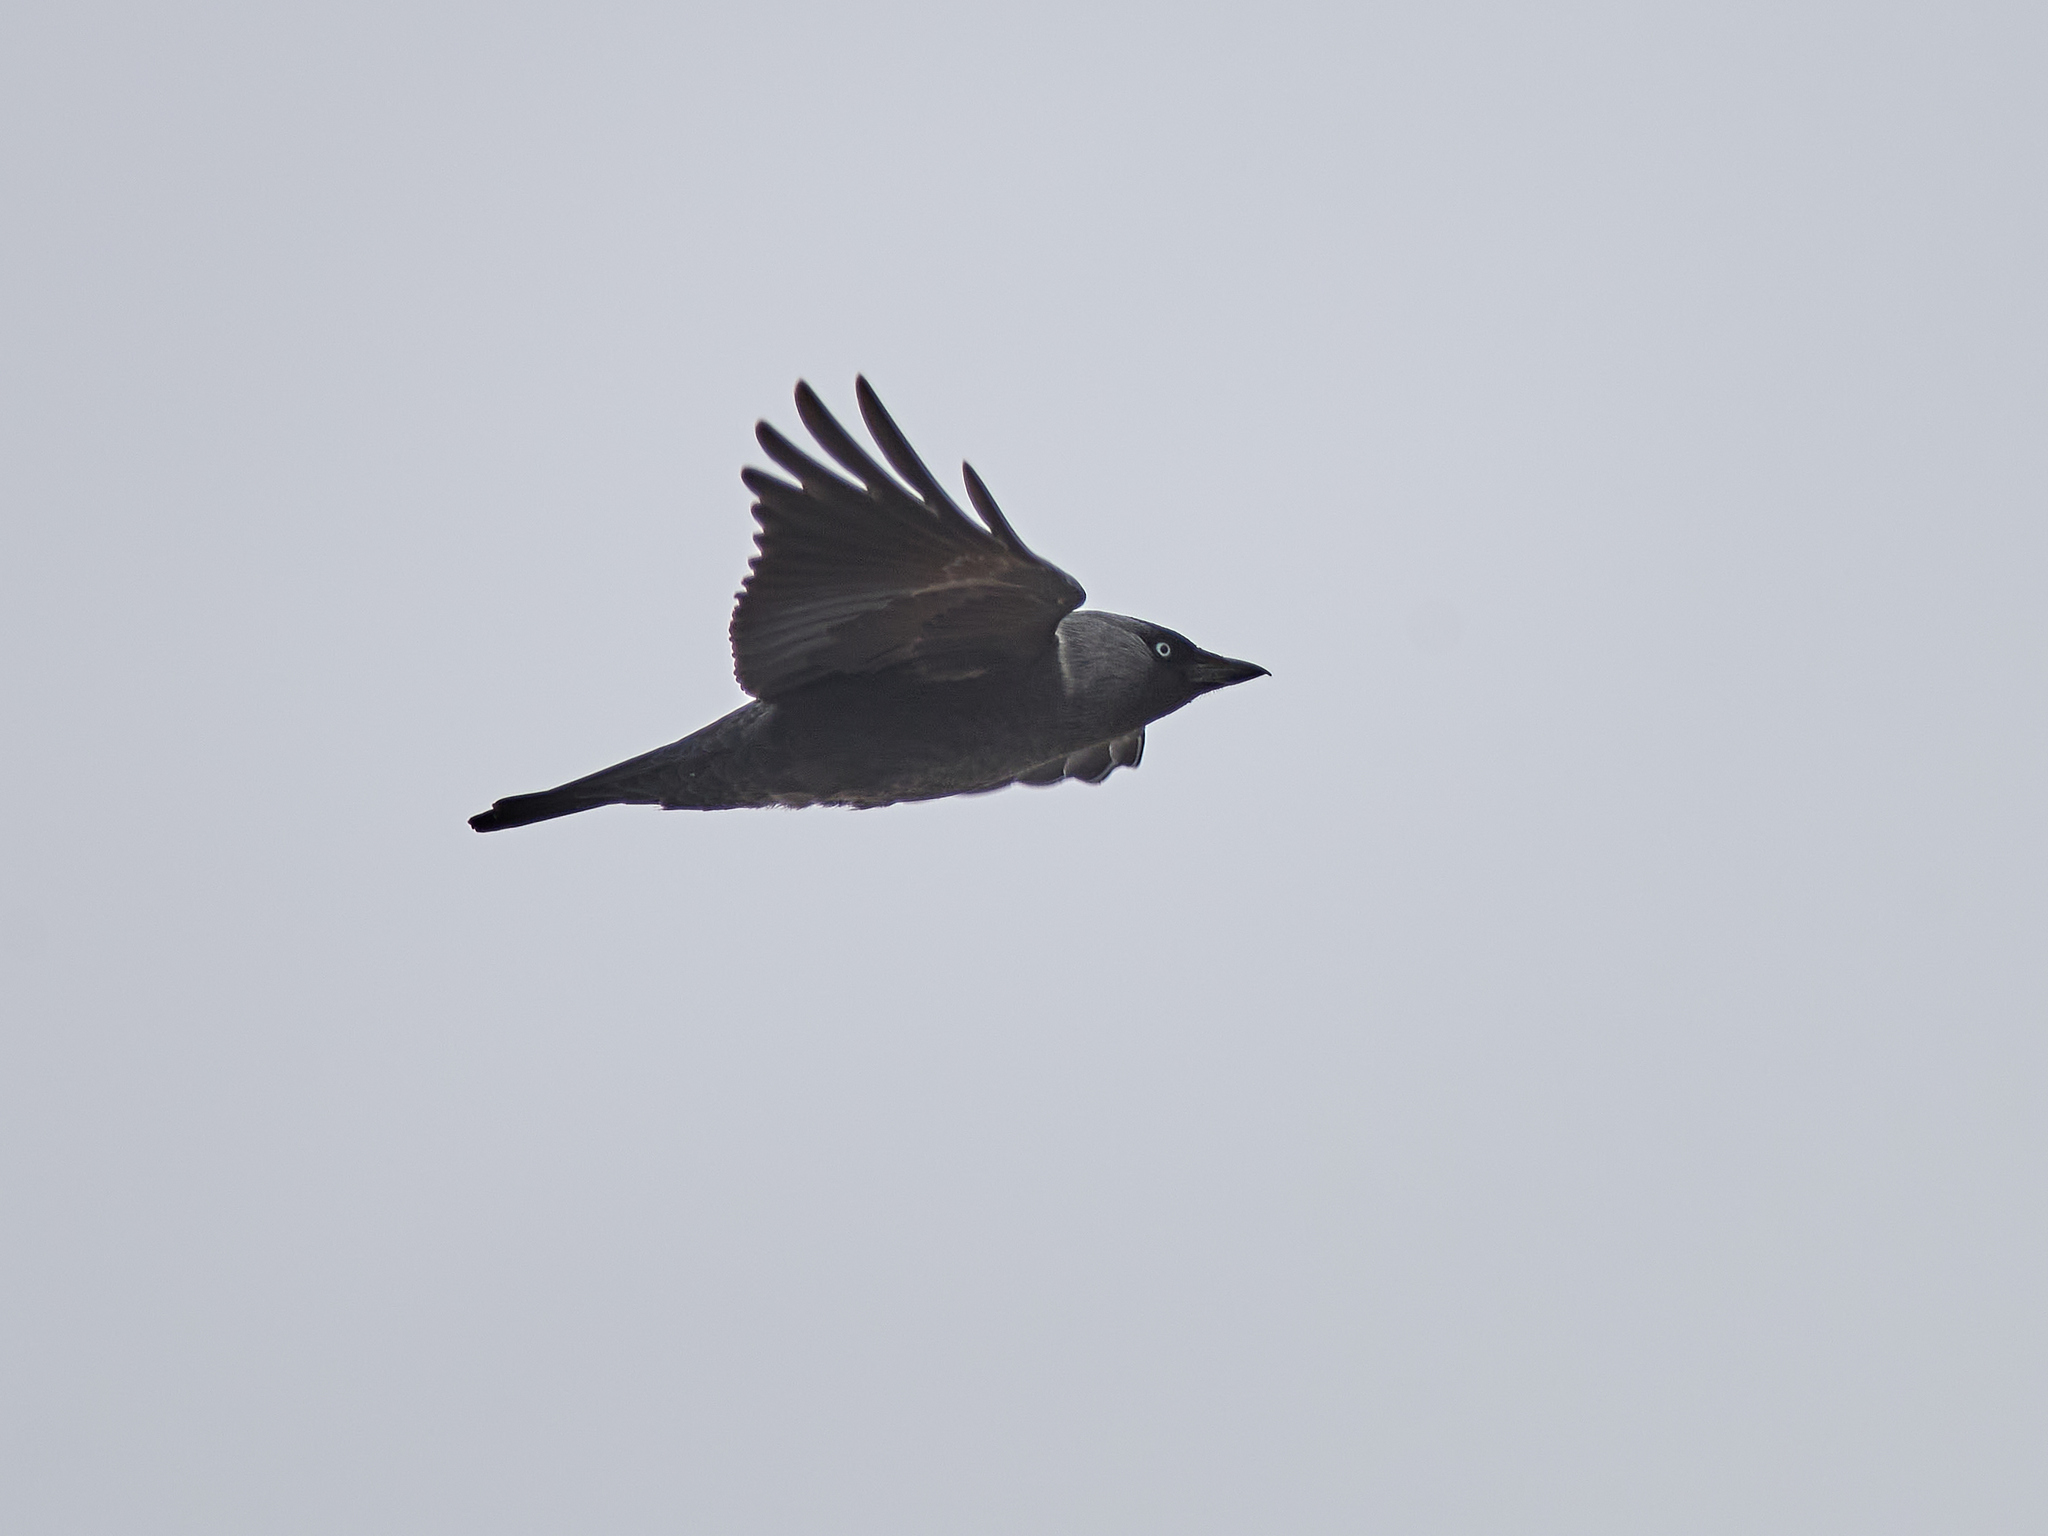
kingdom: Animalia
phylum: Chordata
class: Aves
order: Passeriformes
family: Corvidae
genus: Coloeus
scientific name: Coloeus monedula
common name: Western jackdaw
